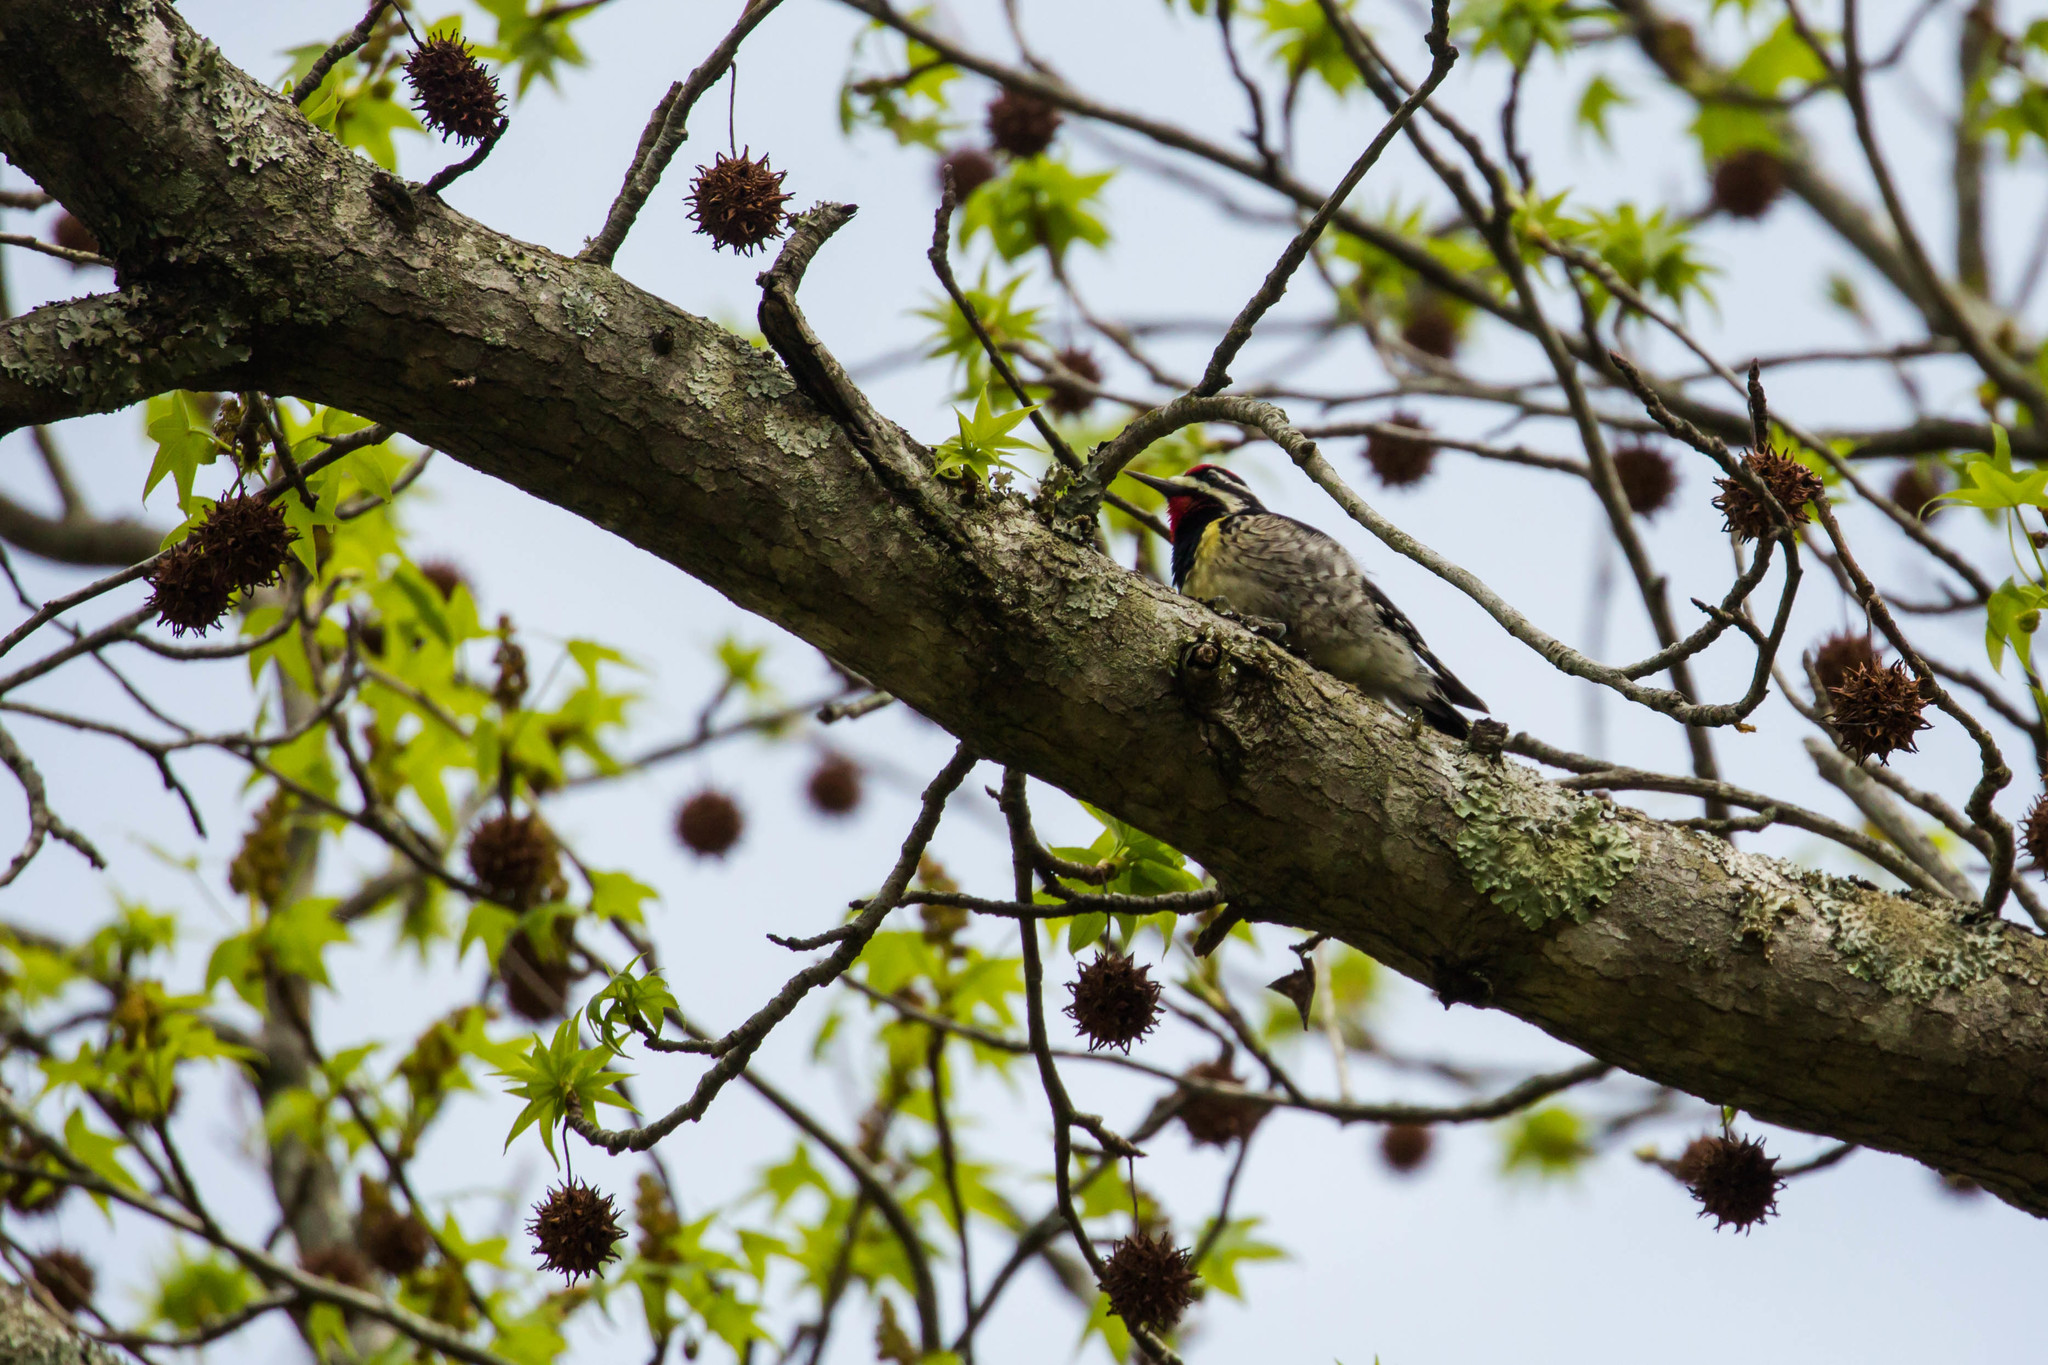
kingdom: Animalia
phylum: Chordata
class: Aves
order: Piciformes
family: Picidae
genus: Sphyrapicus
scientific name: Sphyrapicus varius
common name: Yellow-bellied sapsucker
